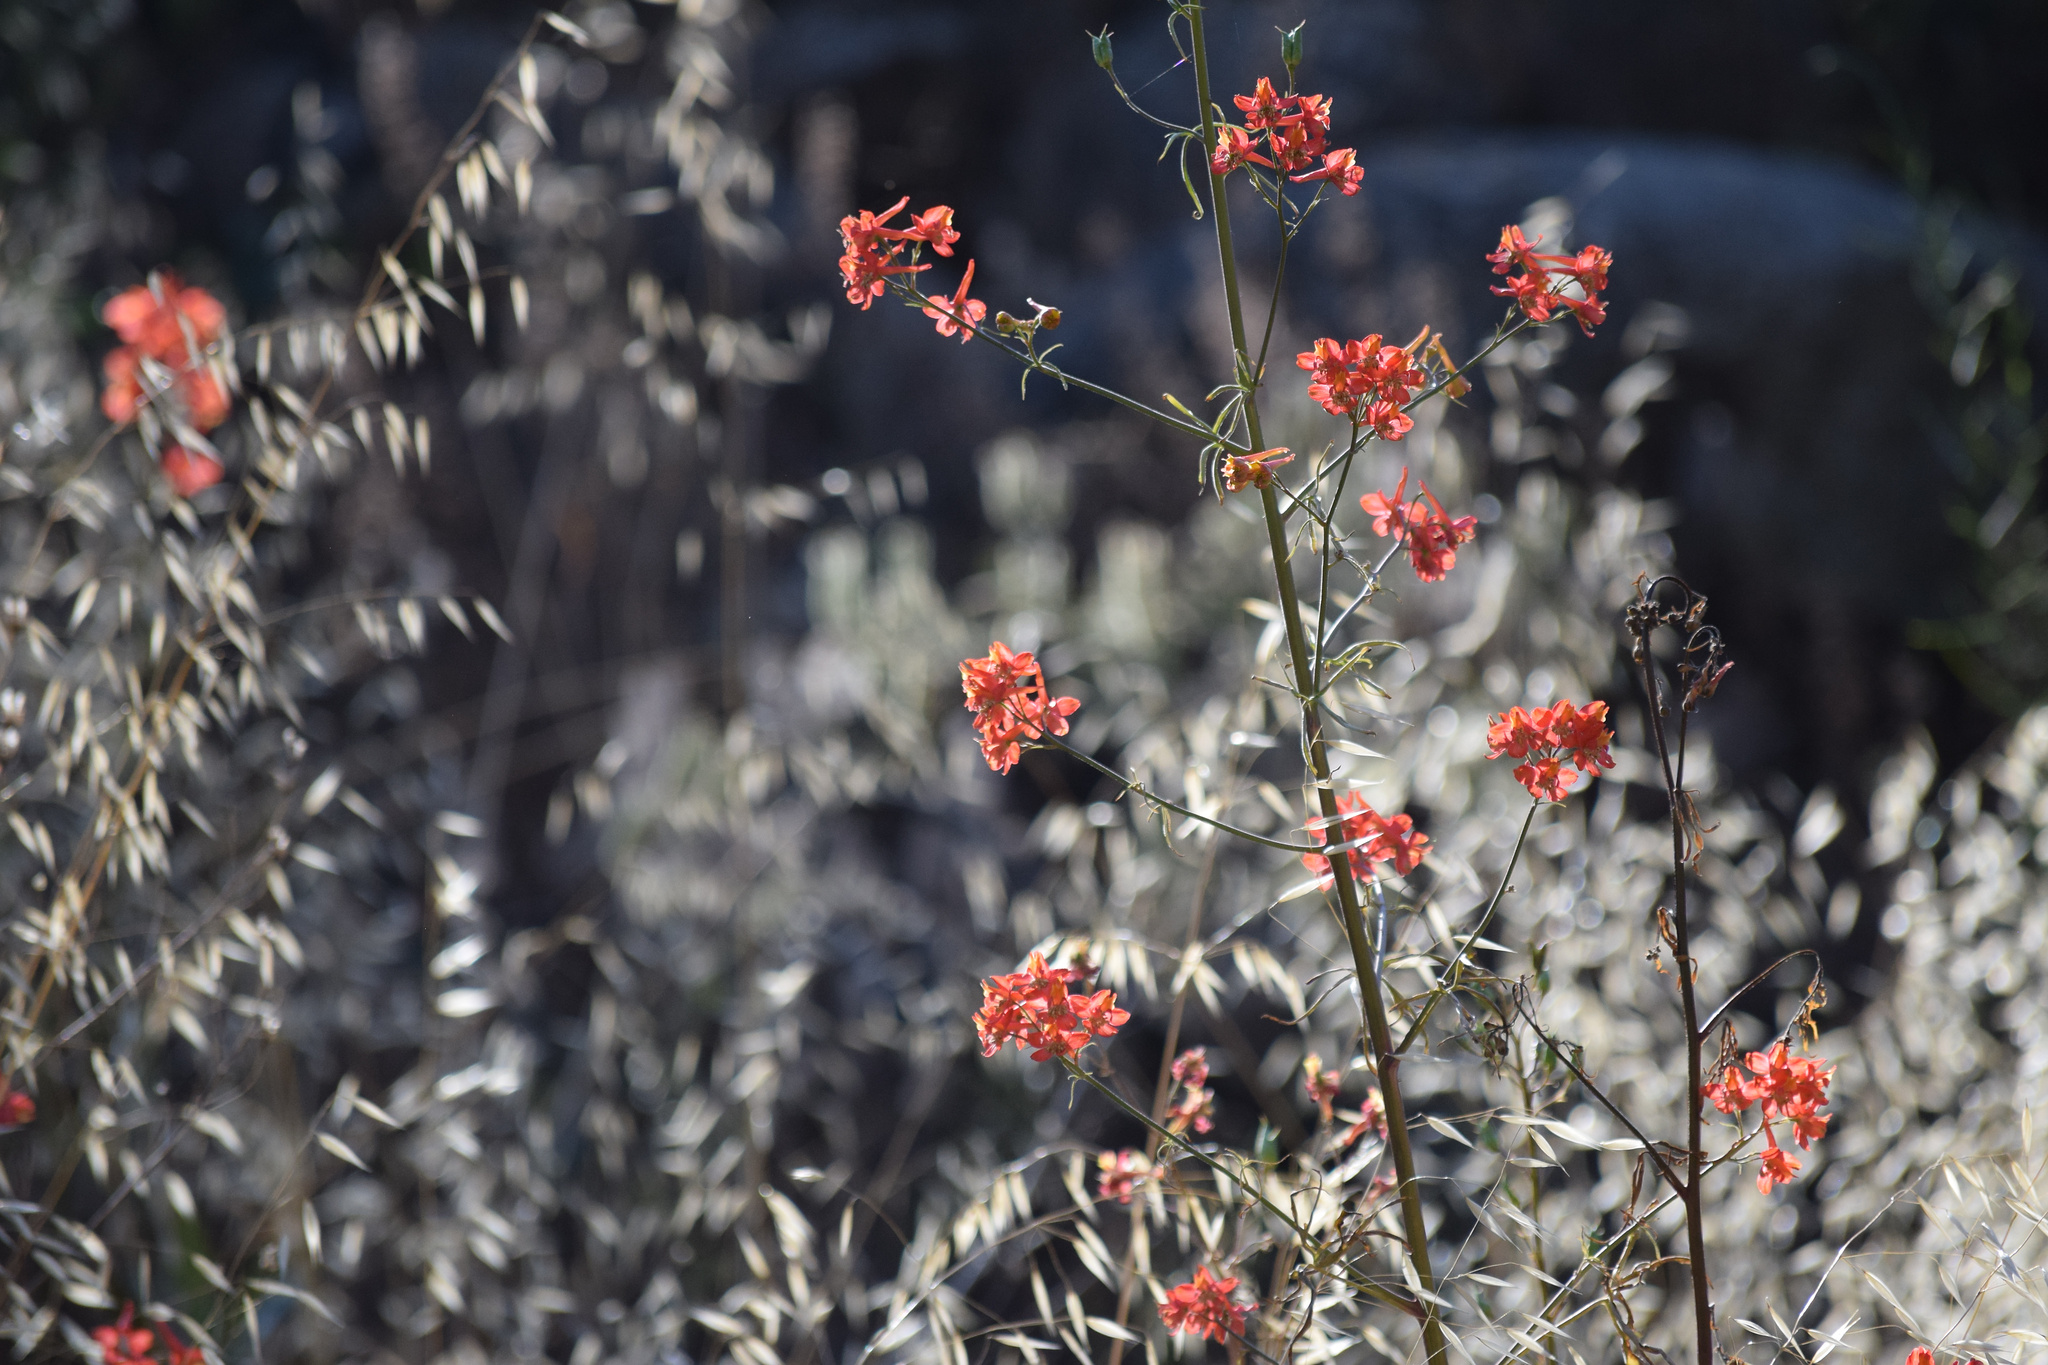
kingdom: Plantae
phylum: Tracheophyta
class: Magnoliopsida
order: Ranunculales
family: Ranunculaceae
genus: Delphinium
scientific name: Delphinium cardinale
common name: Scarlet larkspur
